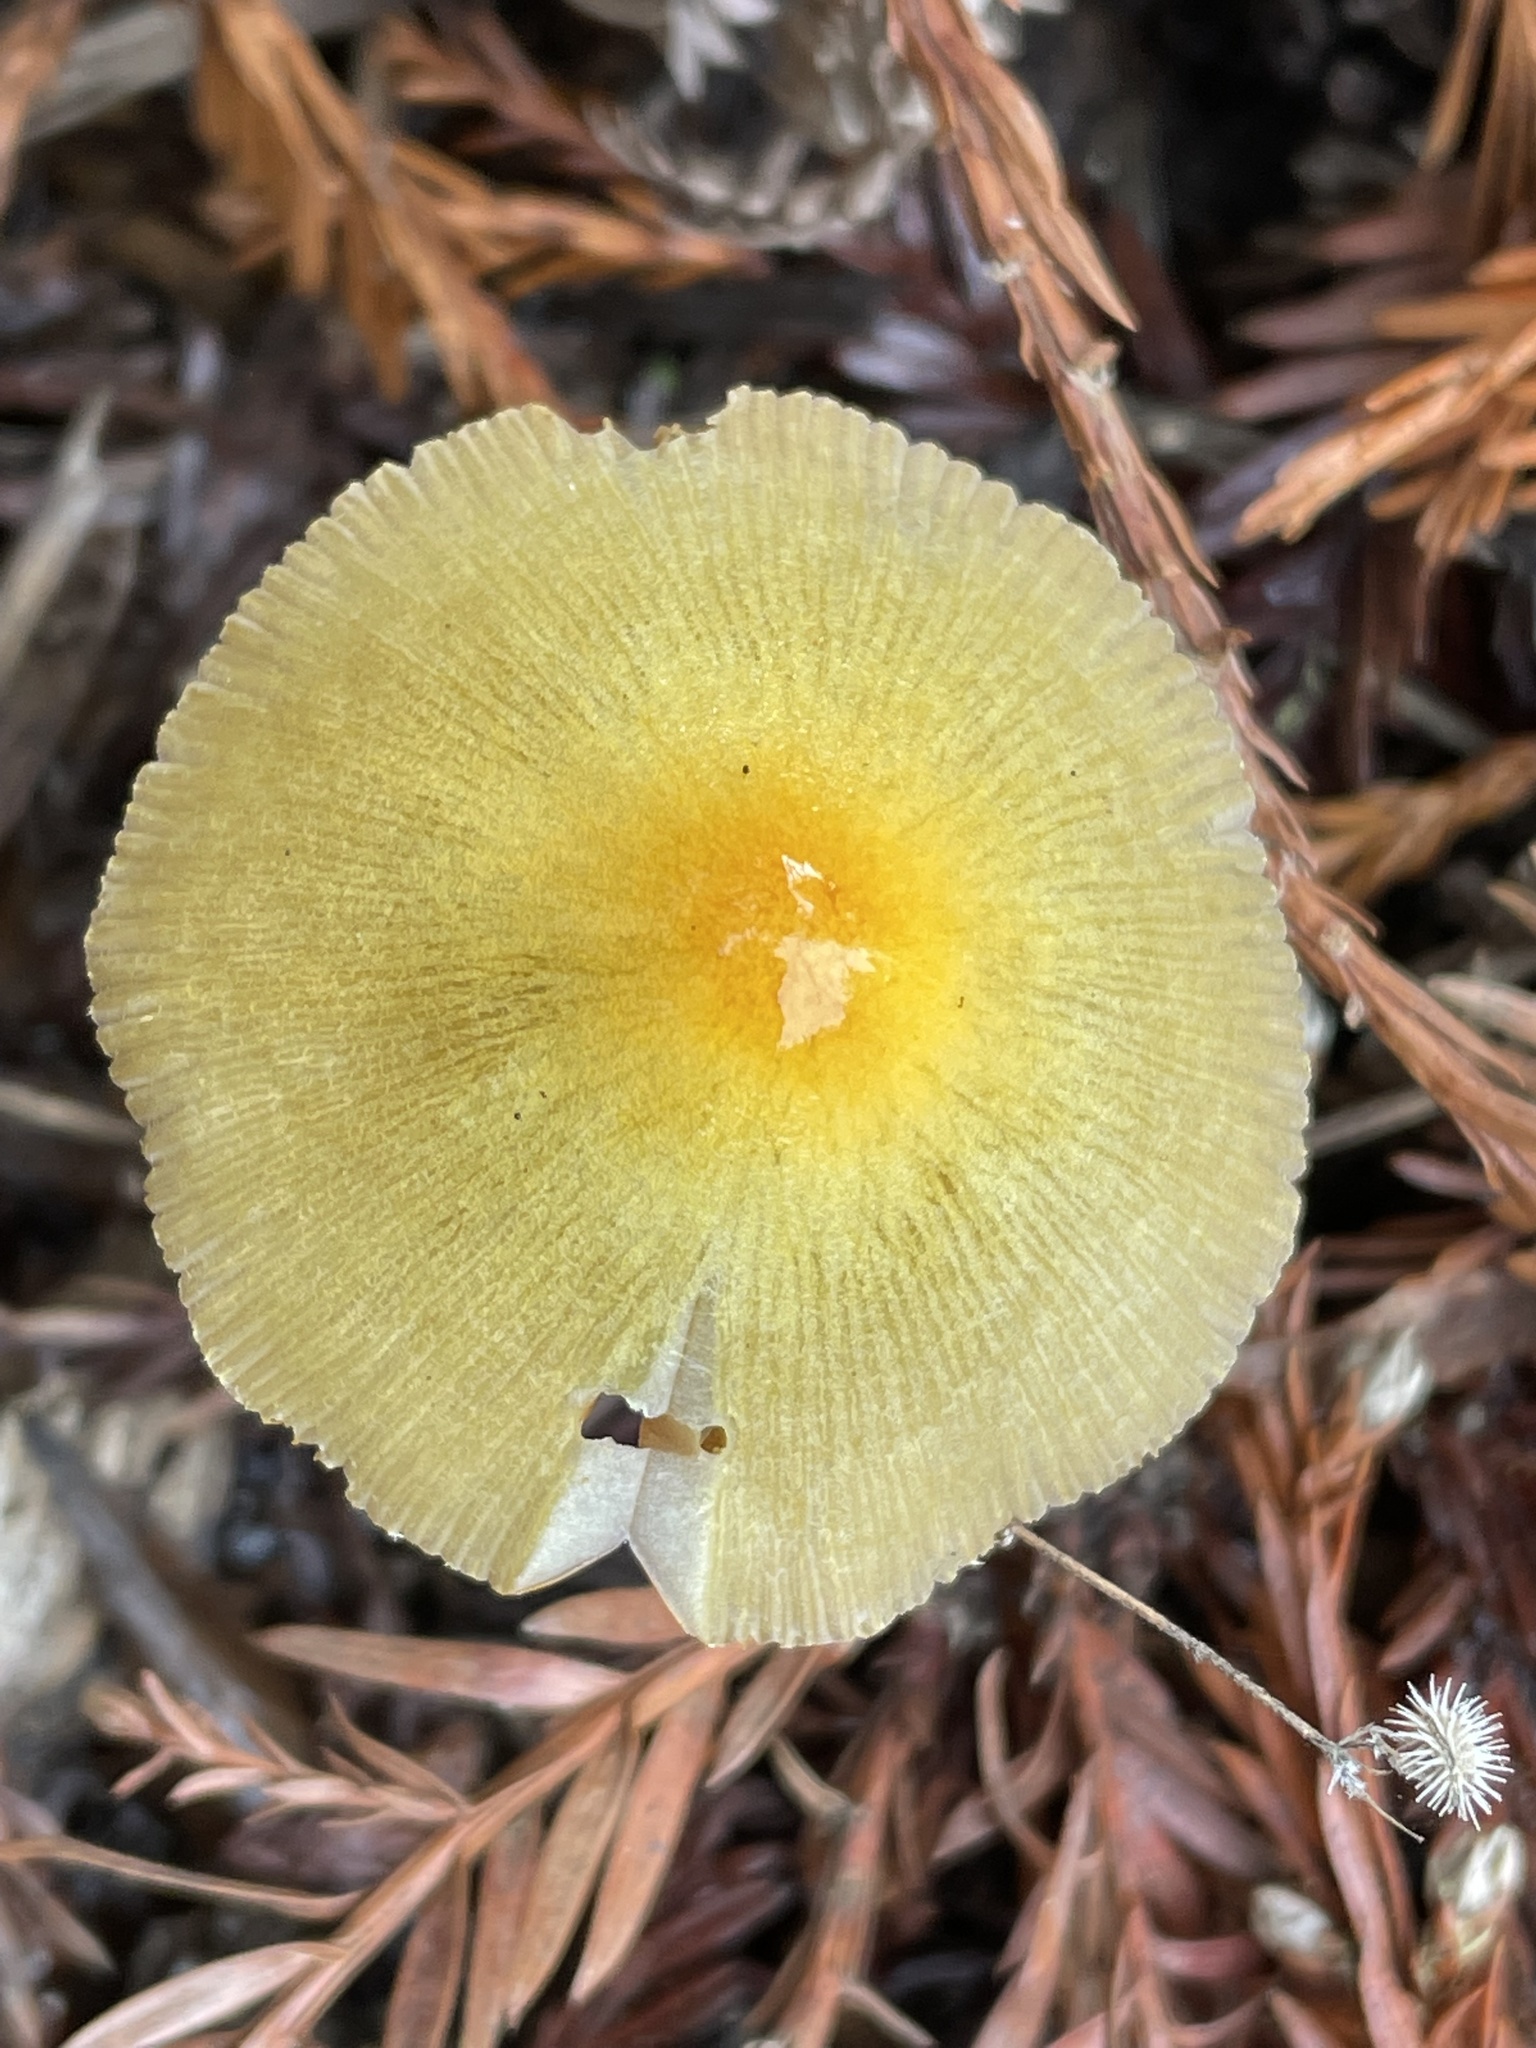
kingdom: Fungi
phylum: Basidiomycota
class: Agaricomycetes
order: Agaricales
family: Bolbitiaceae
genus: Bolbitius
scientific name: Bolbitius titubans
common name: Yellow fieldcap
